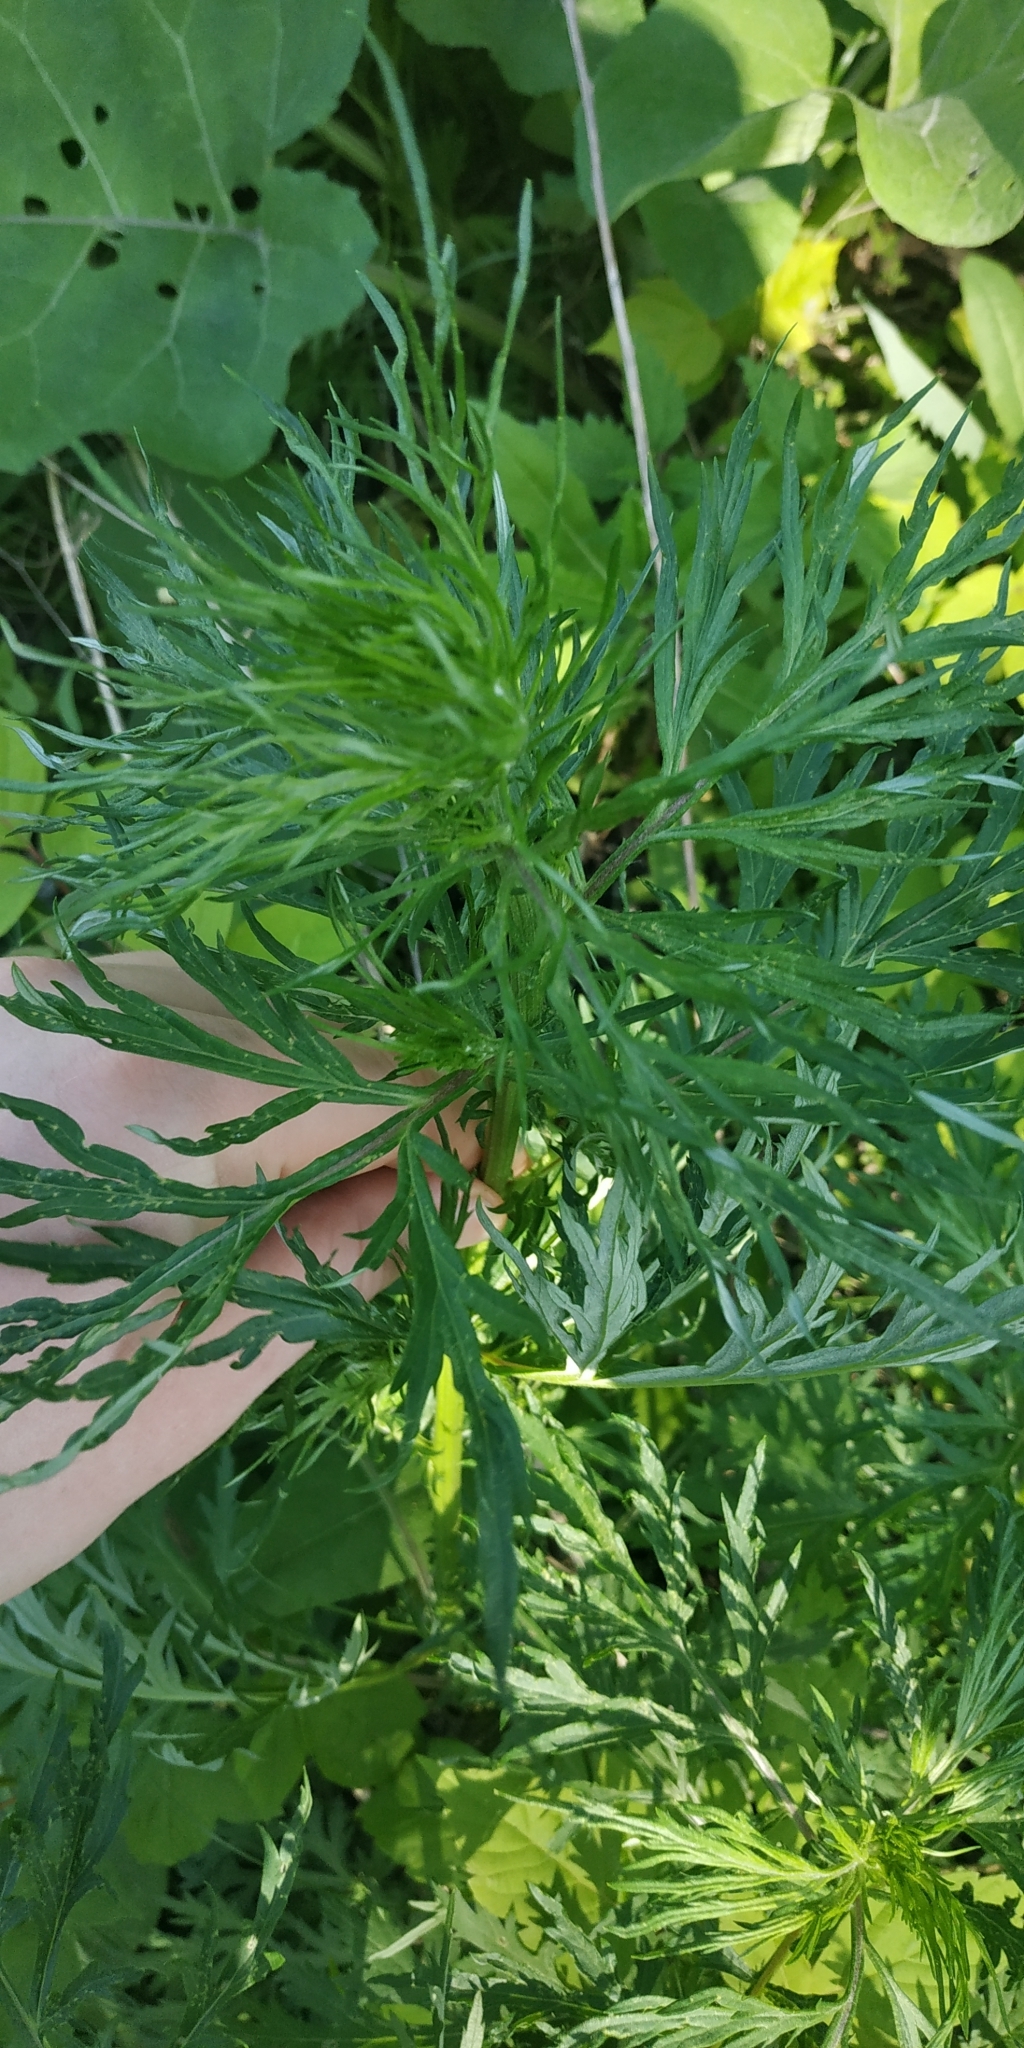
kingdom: Plantae
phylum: Tracheophyta
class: Magnoliopsida
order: Asterales
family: Asteraceae
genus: Artemisia
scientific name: Artemisia vulgaris
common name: Mugwort
